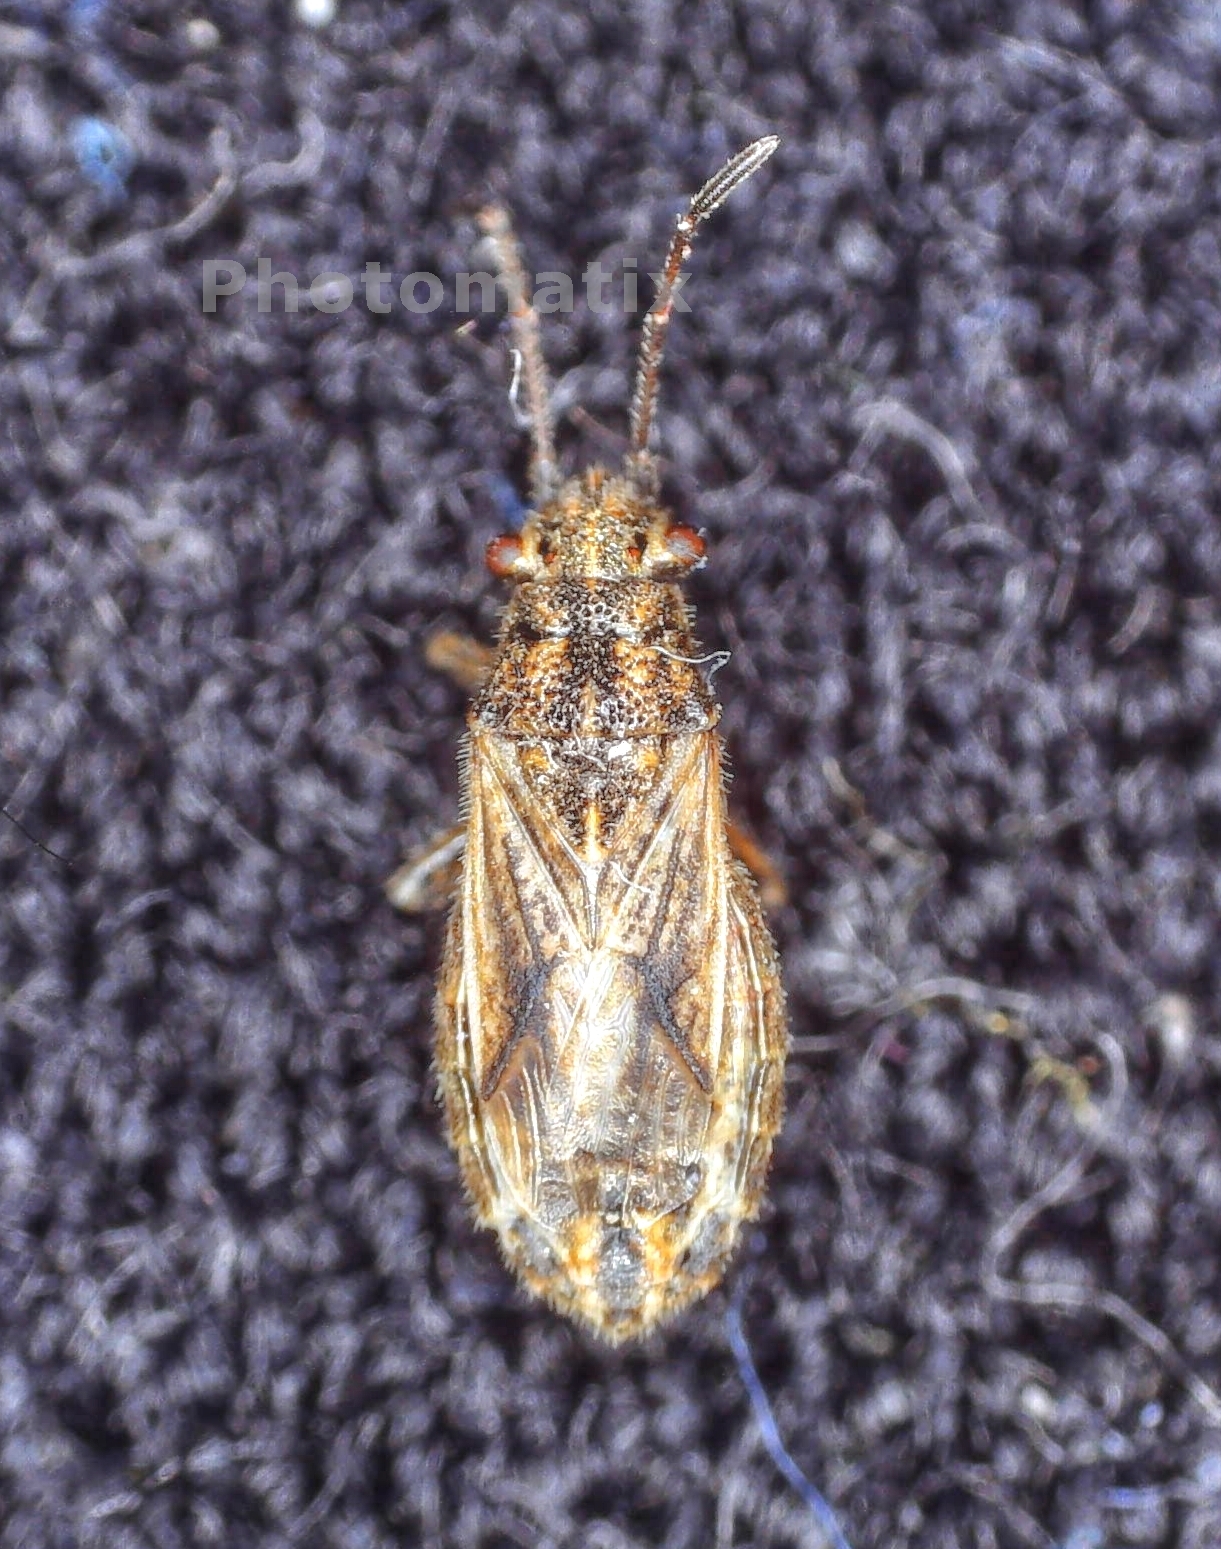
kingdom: Animalia
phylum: Arthropoda
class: Insecta
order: Hemiptera
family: Lygaeidae
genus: Ortholomus
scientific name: Ortholomus punctipennis
